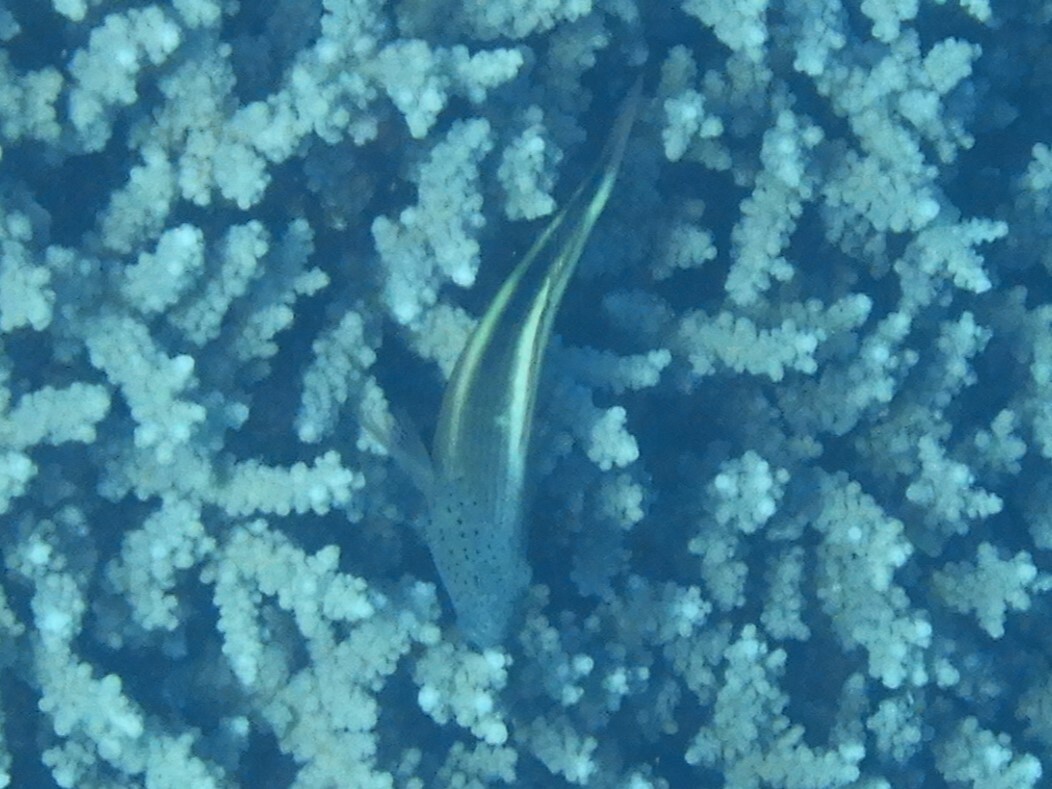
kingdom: Animalia
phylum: Chordata
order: Perciformes
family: Cirrhitidae
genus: Paracirrhites
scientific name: Paracirrhites forsteri
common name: Freckled hawkfish
